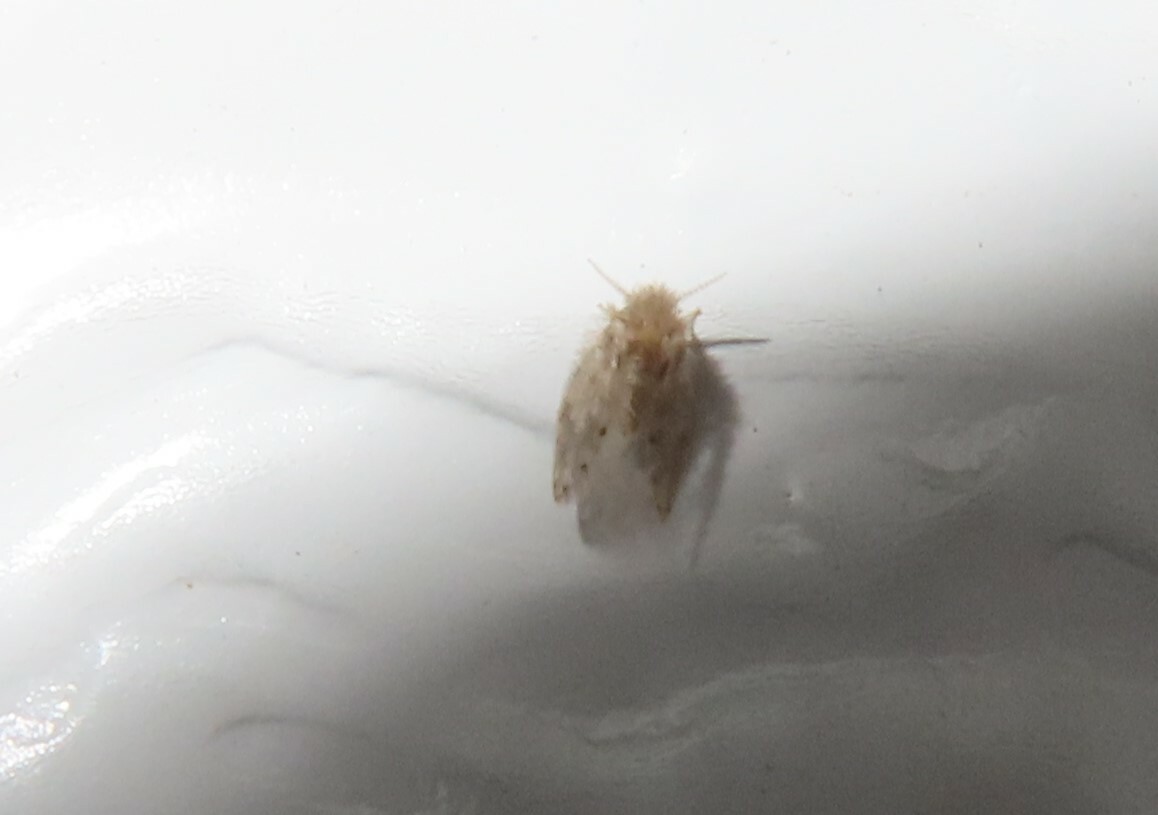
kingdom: Animalia
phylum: Arthropoda
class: Insecta
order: Diptera
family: Psychodidae
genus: Psychoda
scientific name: Psychoda alternata
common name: Moth fly
